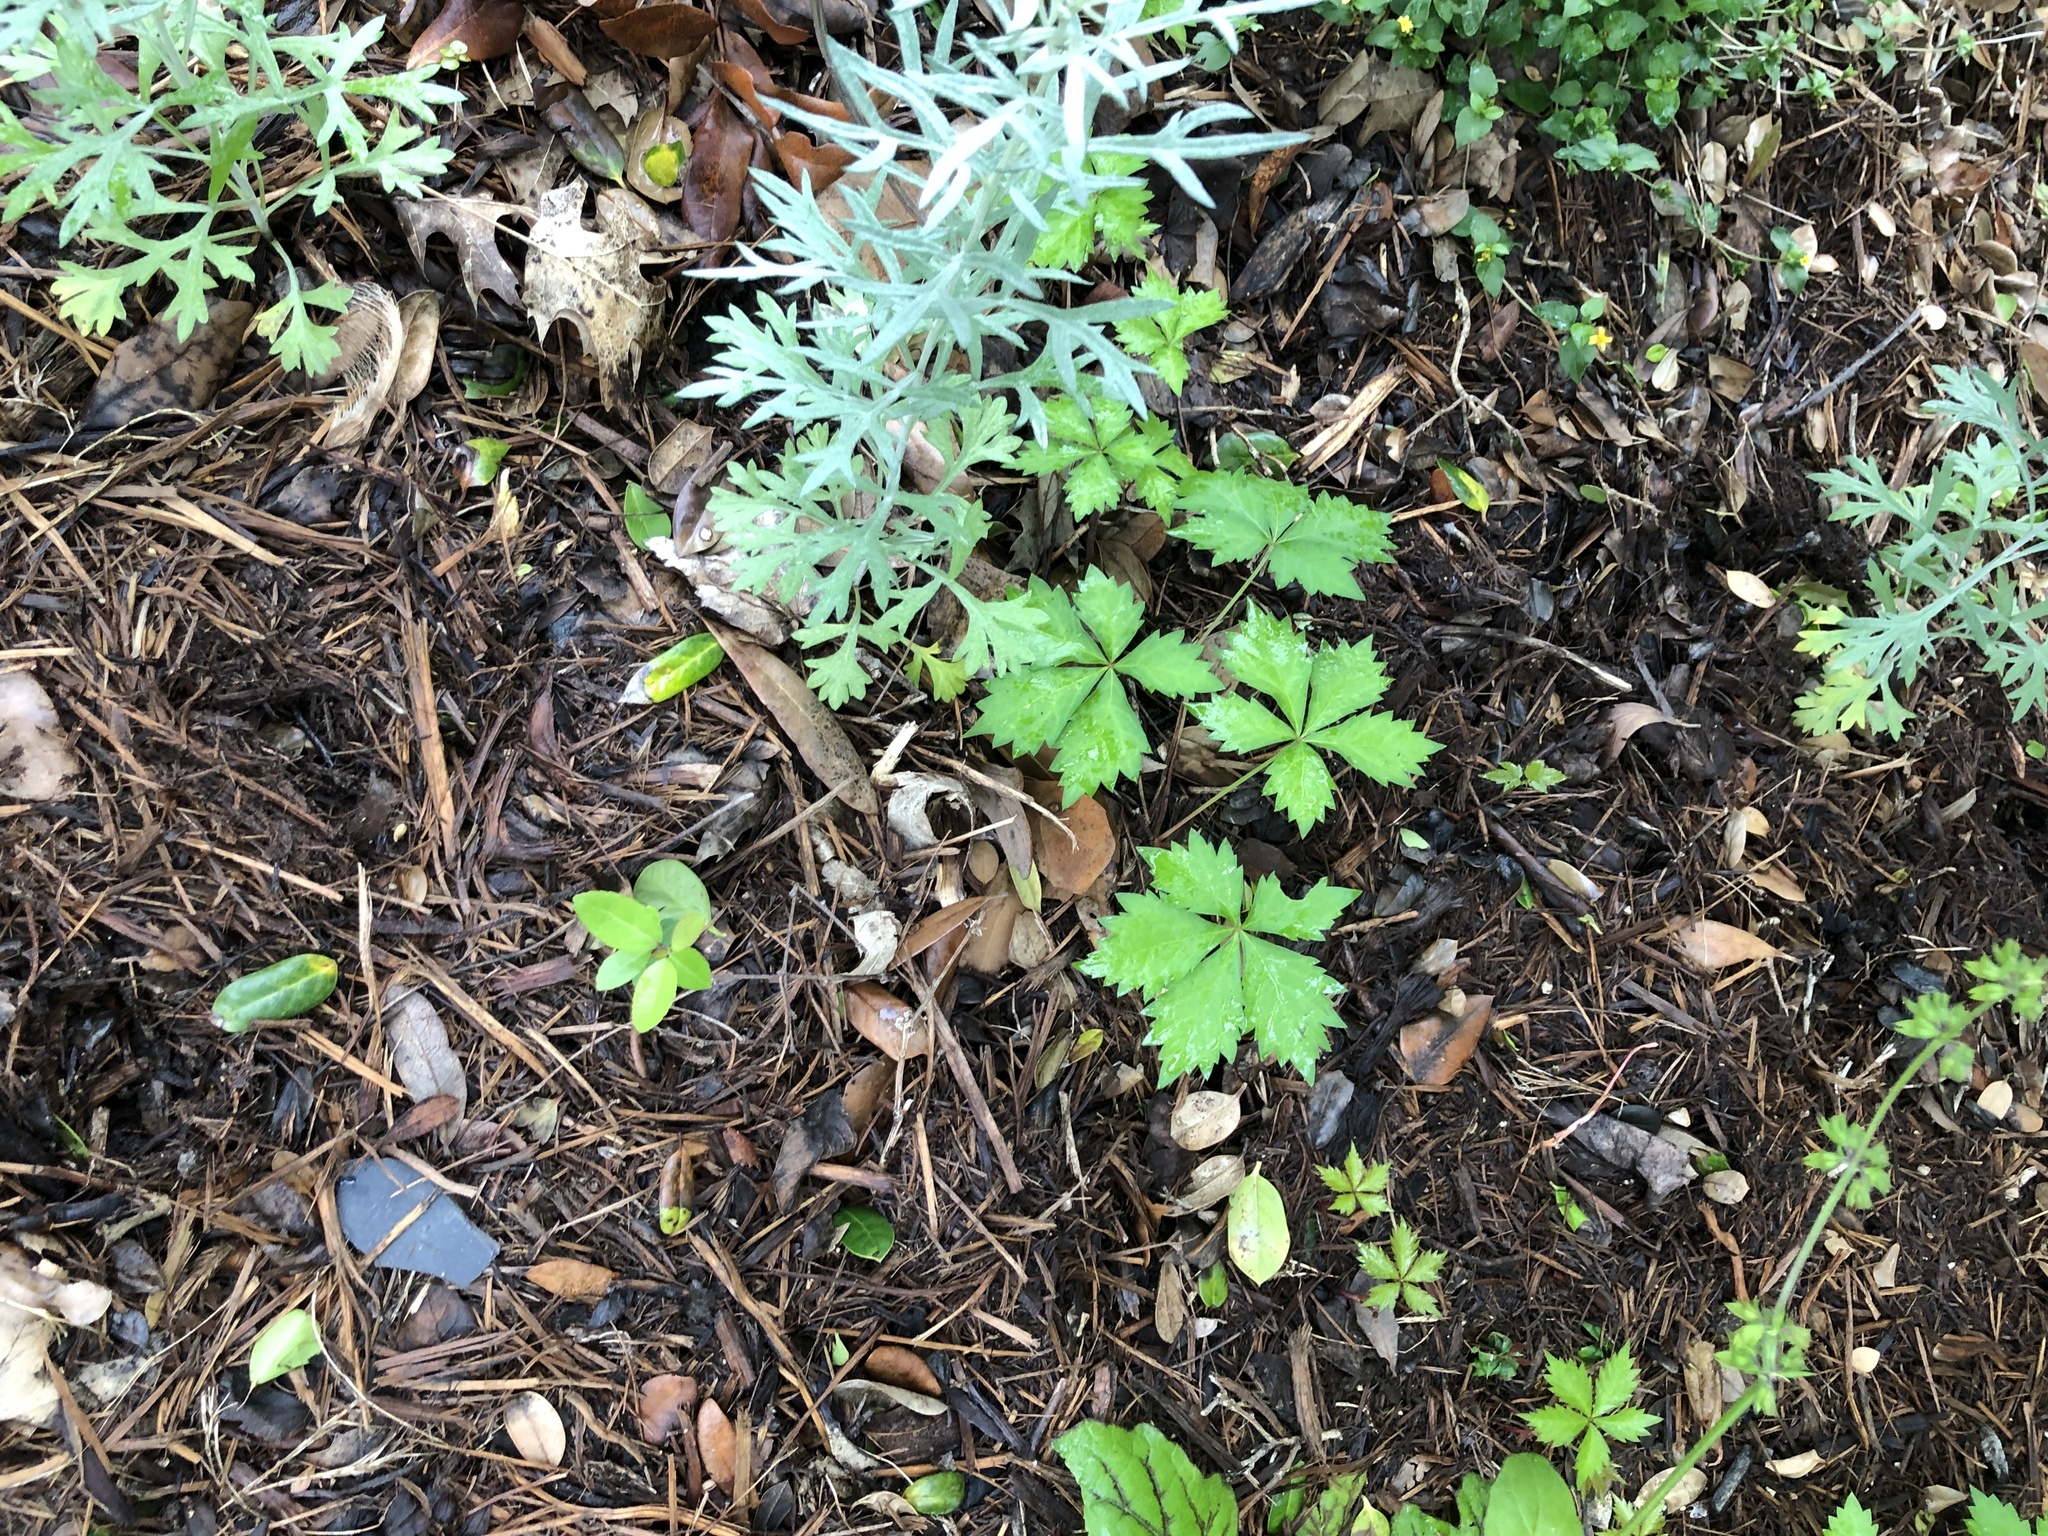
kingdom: Plantae
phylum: Tracheophyta
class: Magnoliopsida
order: Vitales
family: Vitaceae
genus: Parthenocissus
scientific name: Parthenocissus quinquefolia
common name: Virginia-creeper
